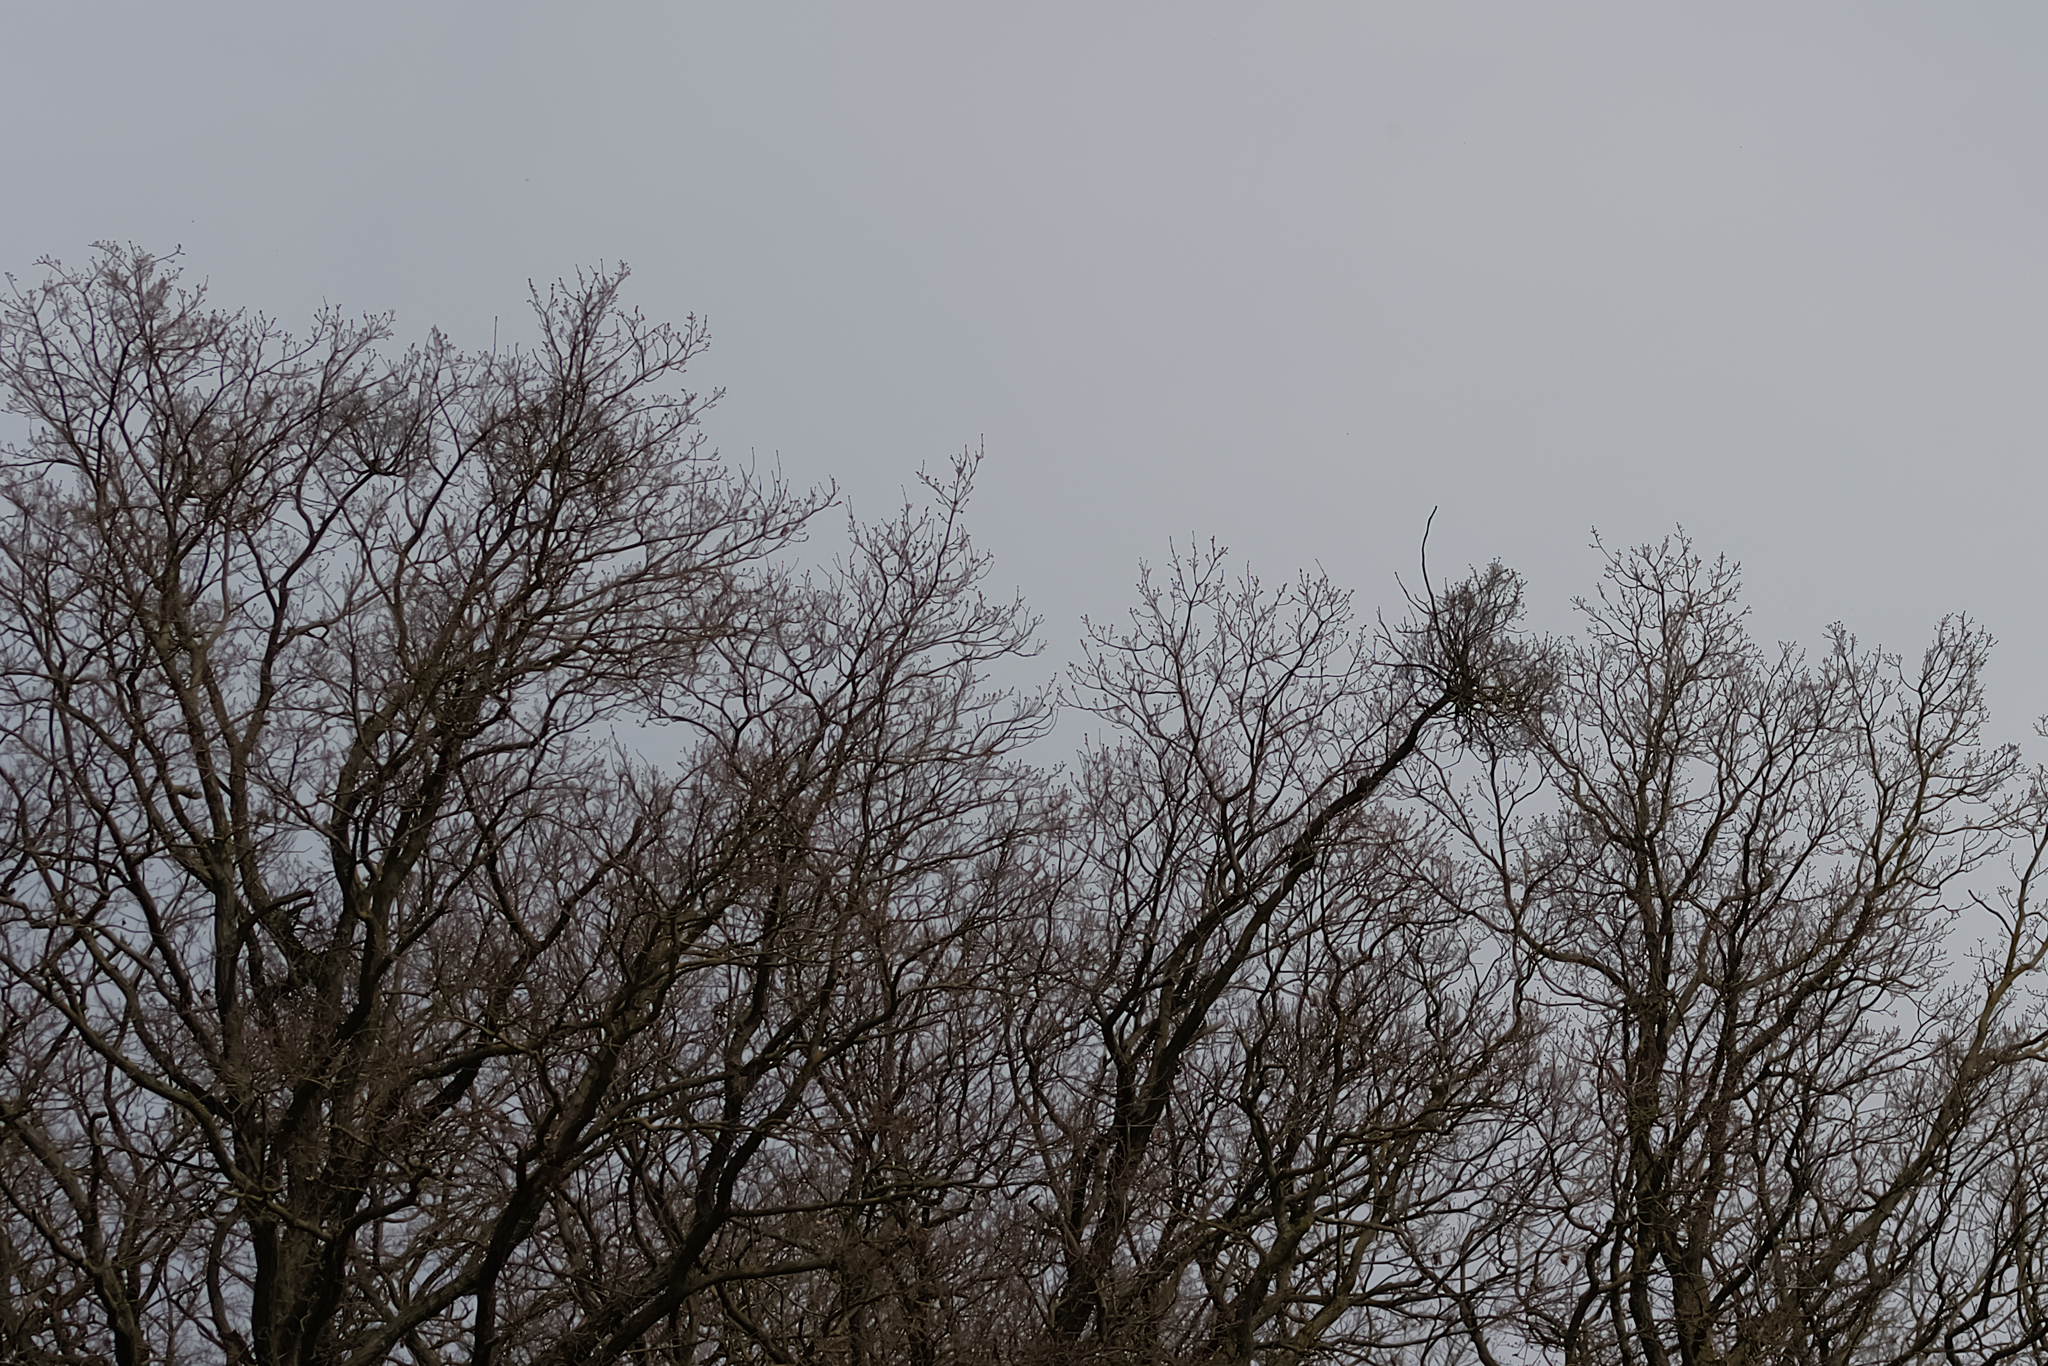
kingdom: Plantae
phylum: Tracheophyta
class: Magnoliopsida
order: Santalales
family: Loranthaceae
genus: Loranthus
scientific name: Loranthus europaeus
